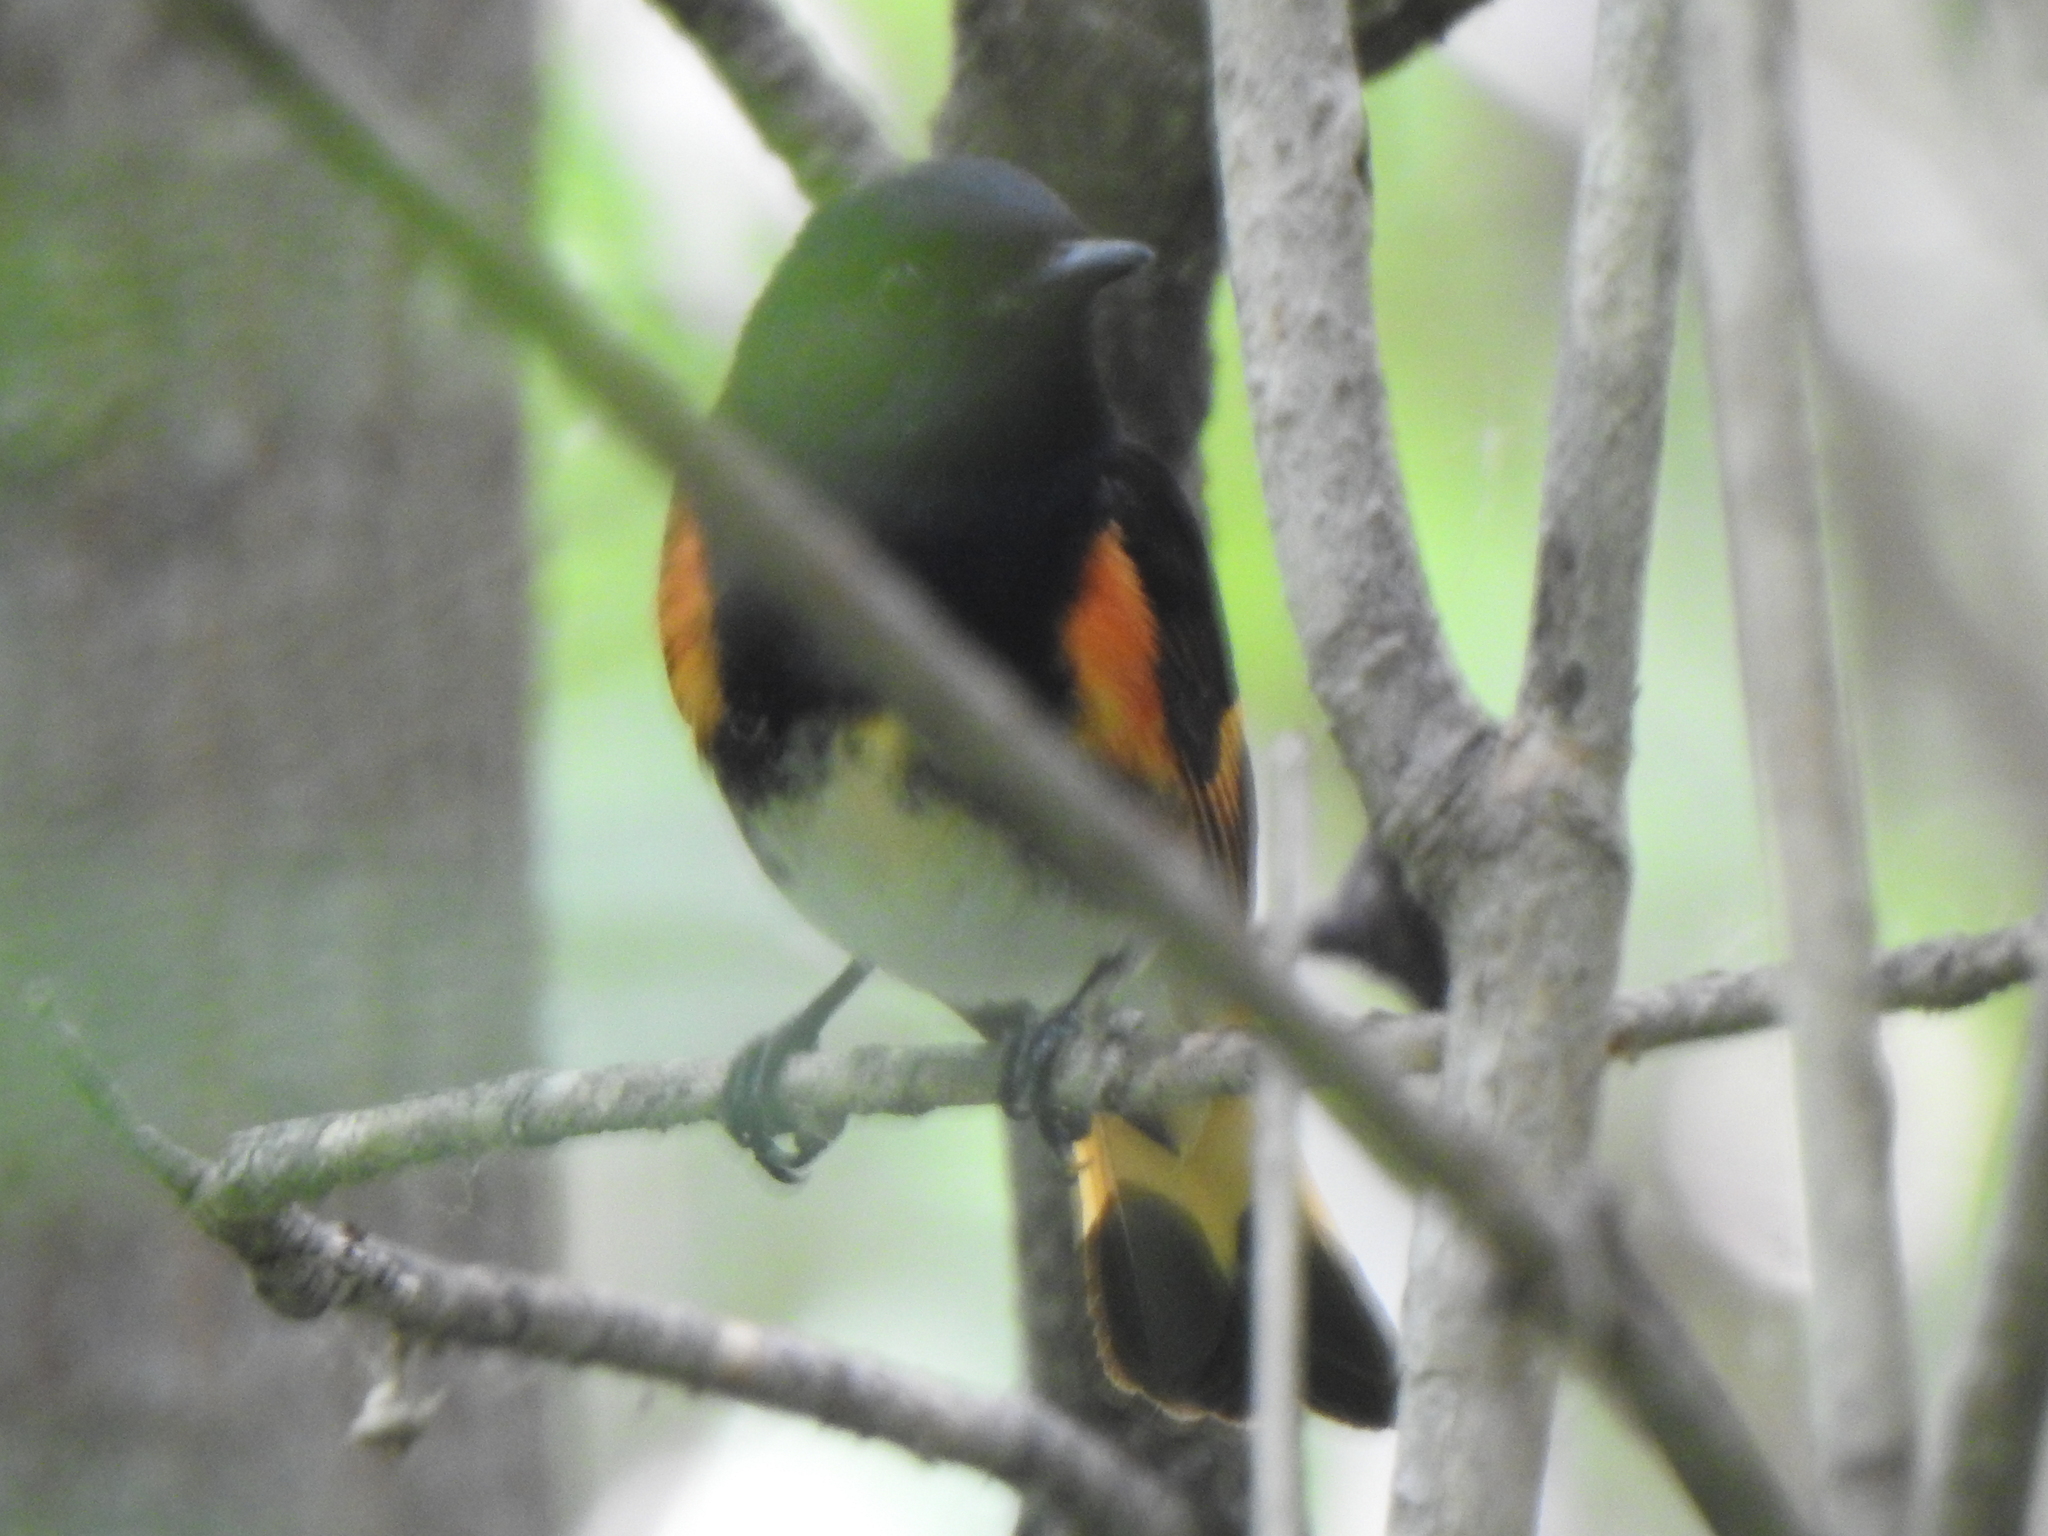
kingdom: Animalia
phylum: Chordata
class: Aves
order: Passeriformes
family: Parulidae
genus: Setophaga
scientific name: Setophaga ruticilla
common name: American redstart
